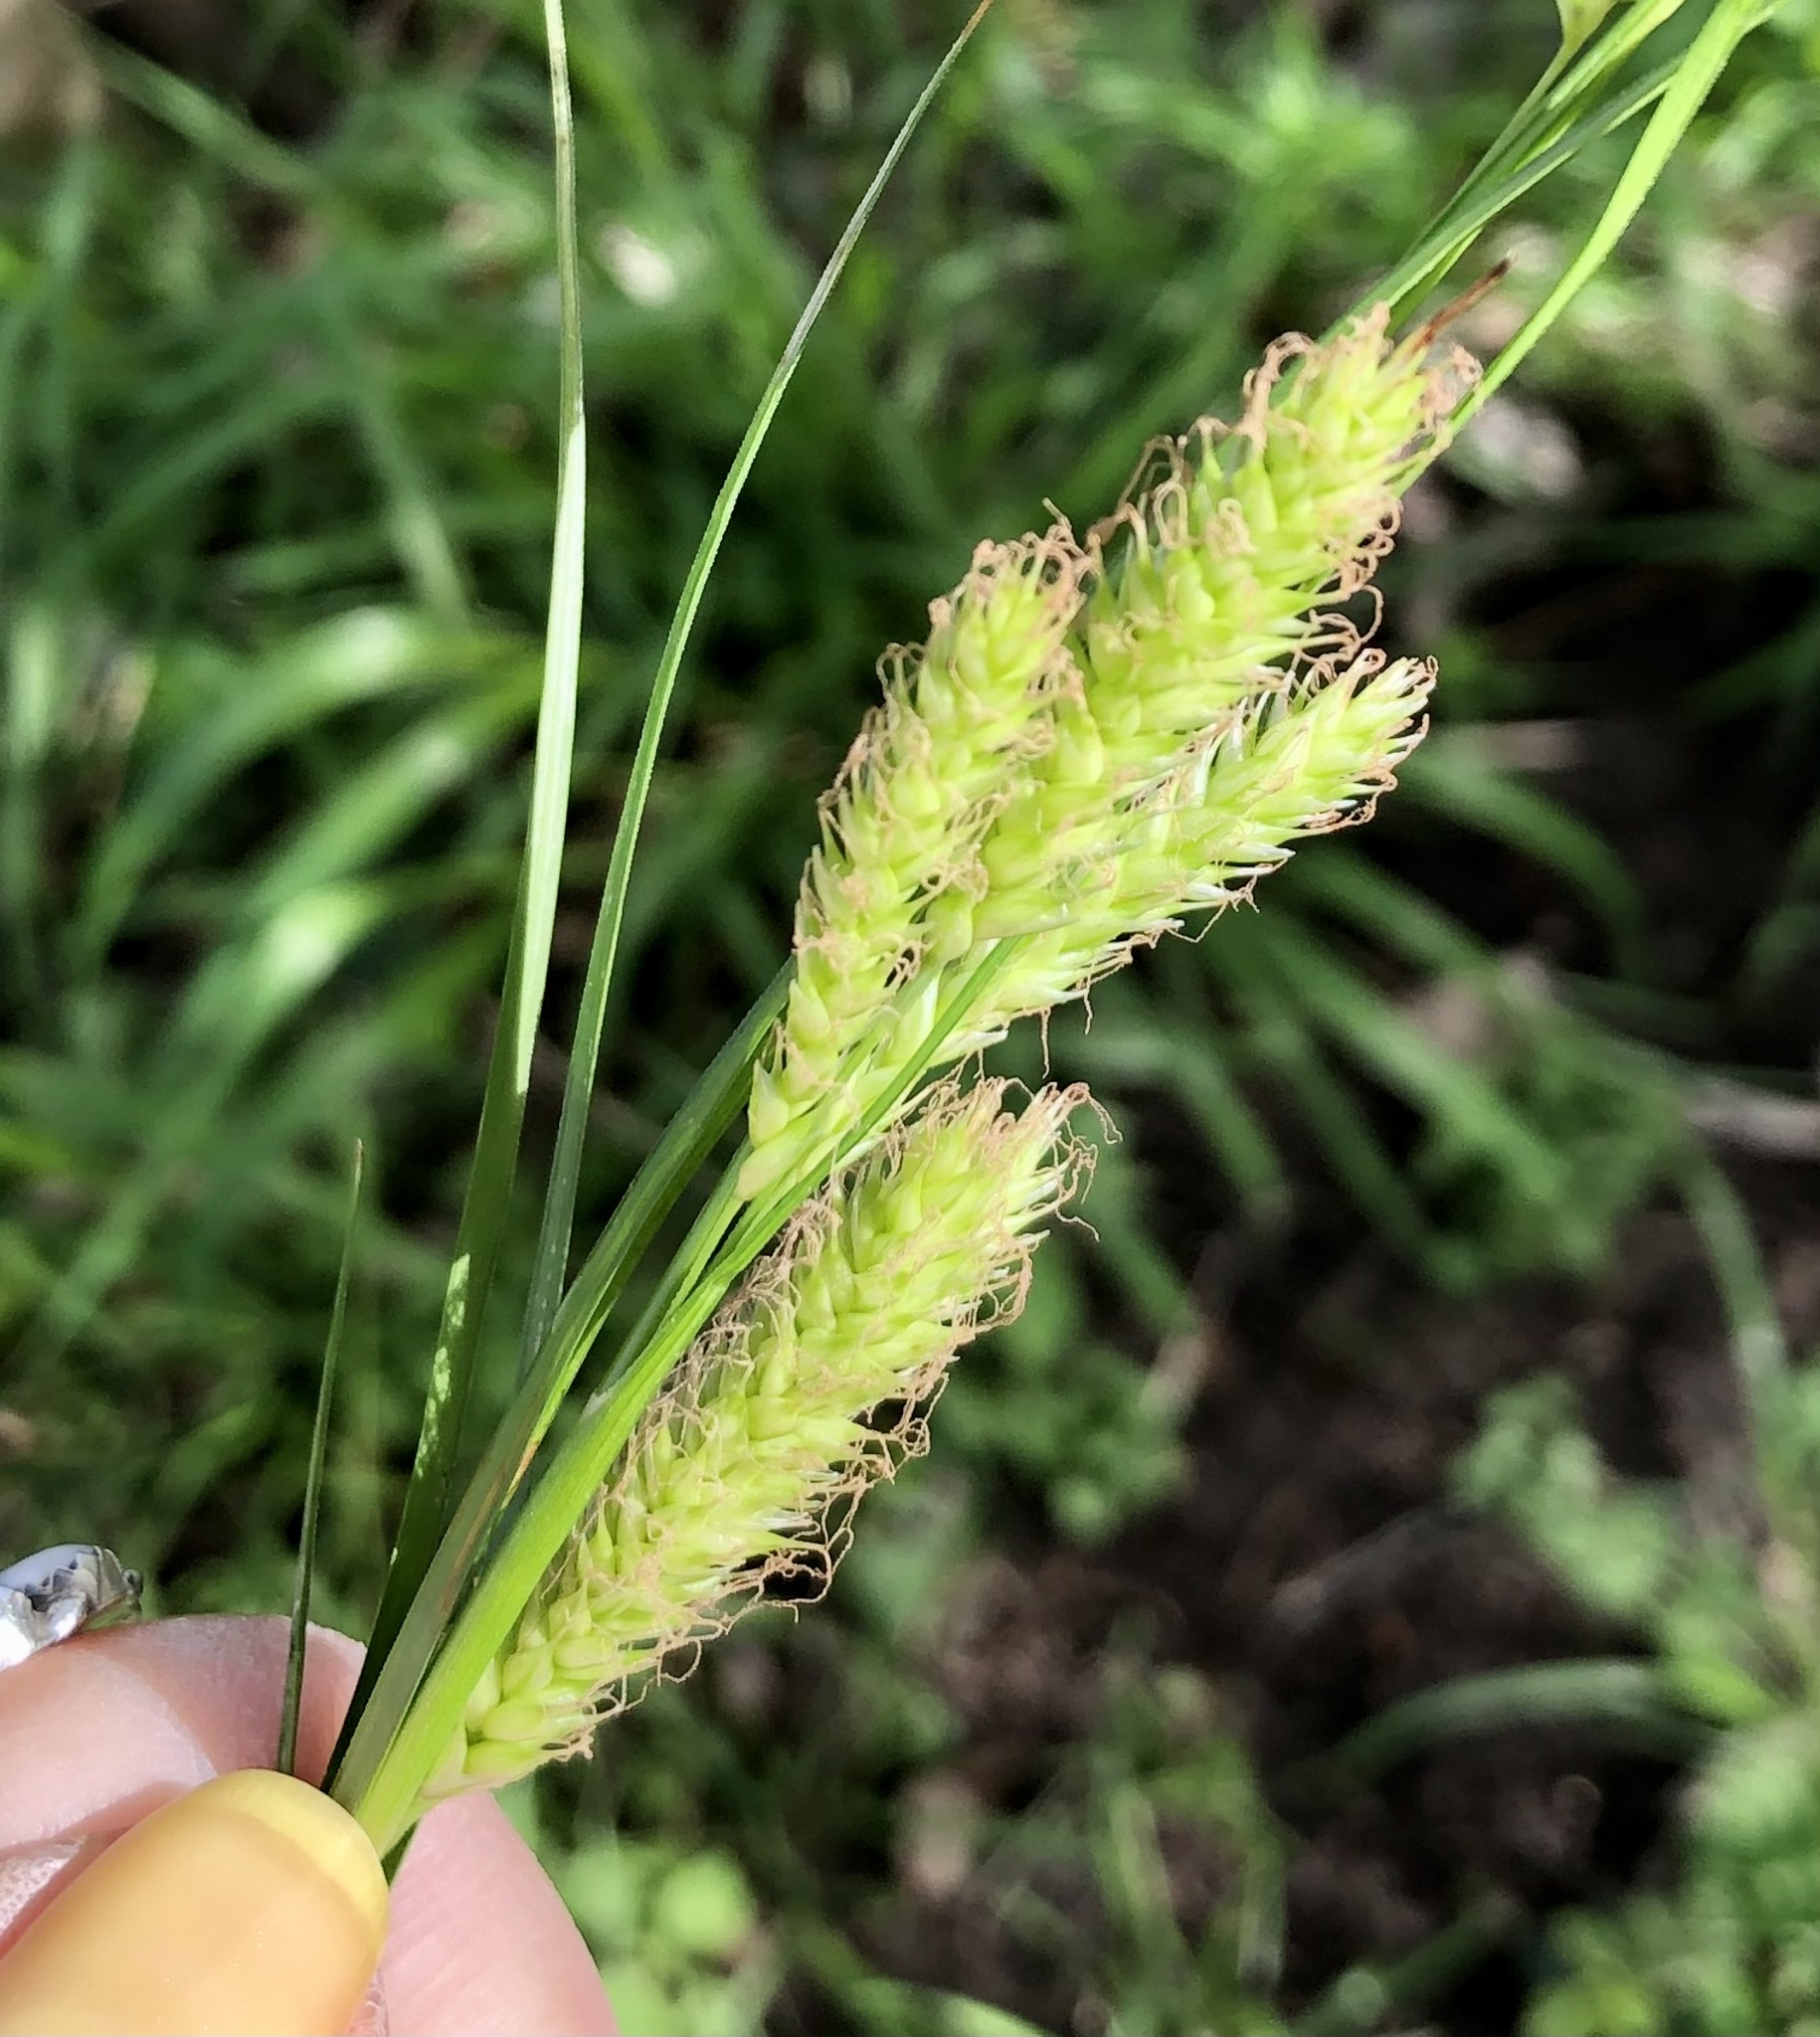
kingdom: Plantae
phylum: Tracheophyta
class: Liliopsida
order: Poales
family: Cyperaceae
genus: Carex
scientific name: Carex cherokeensis
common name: Cherokee sedge
